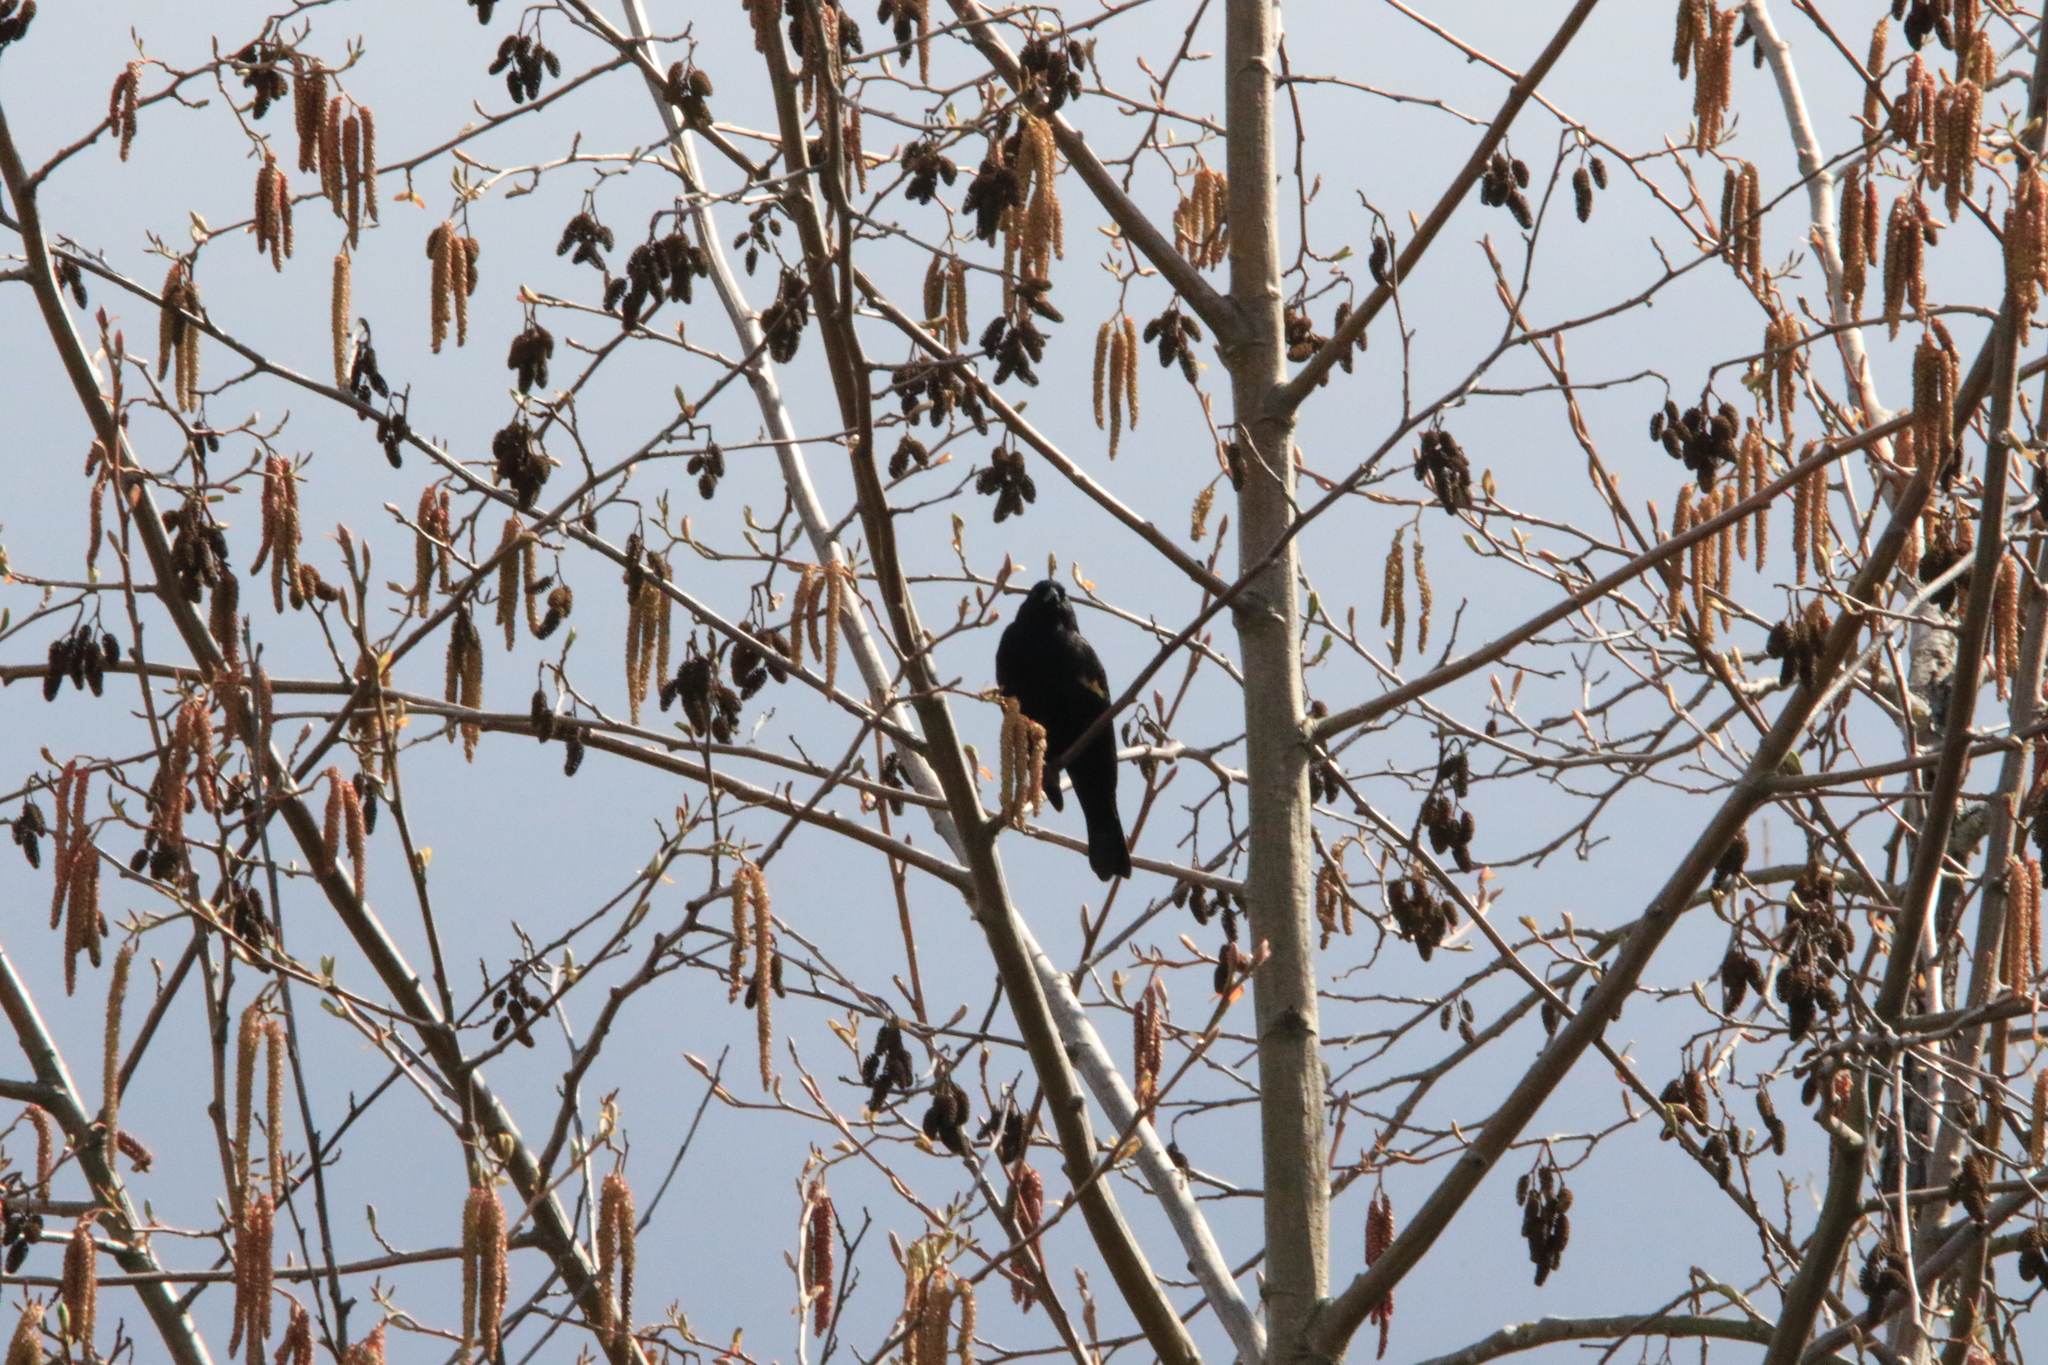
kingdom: Animalia
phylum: Chordata
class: Aves
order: Passeriformes
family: Icteridae
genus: Agelaius
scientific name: Agelaius phoeniceus
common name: Red-winged blackbird
